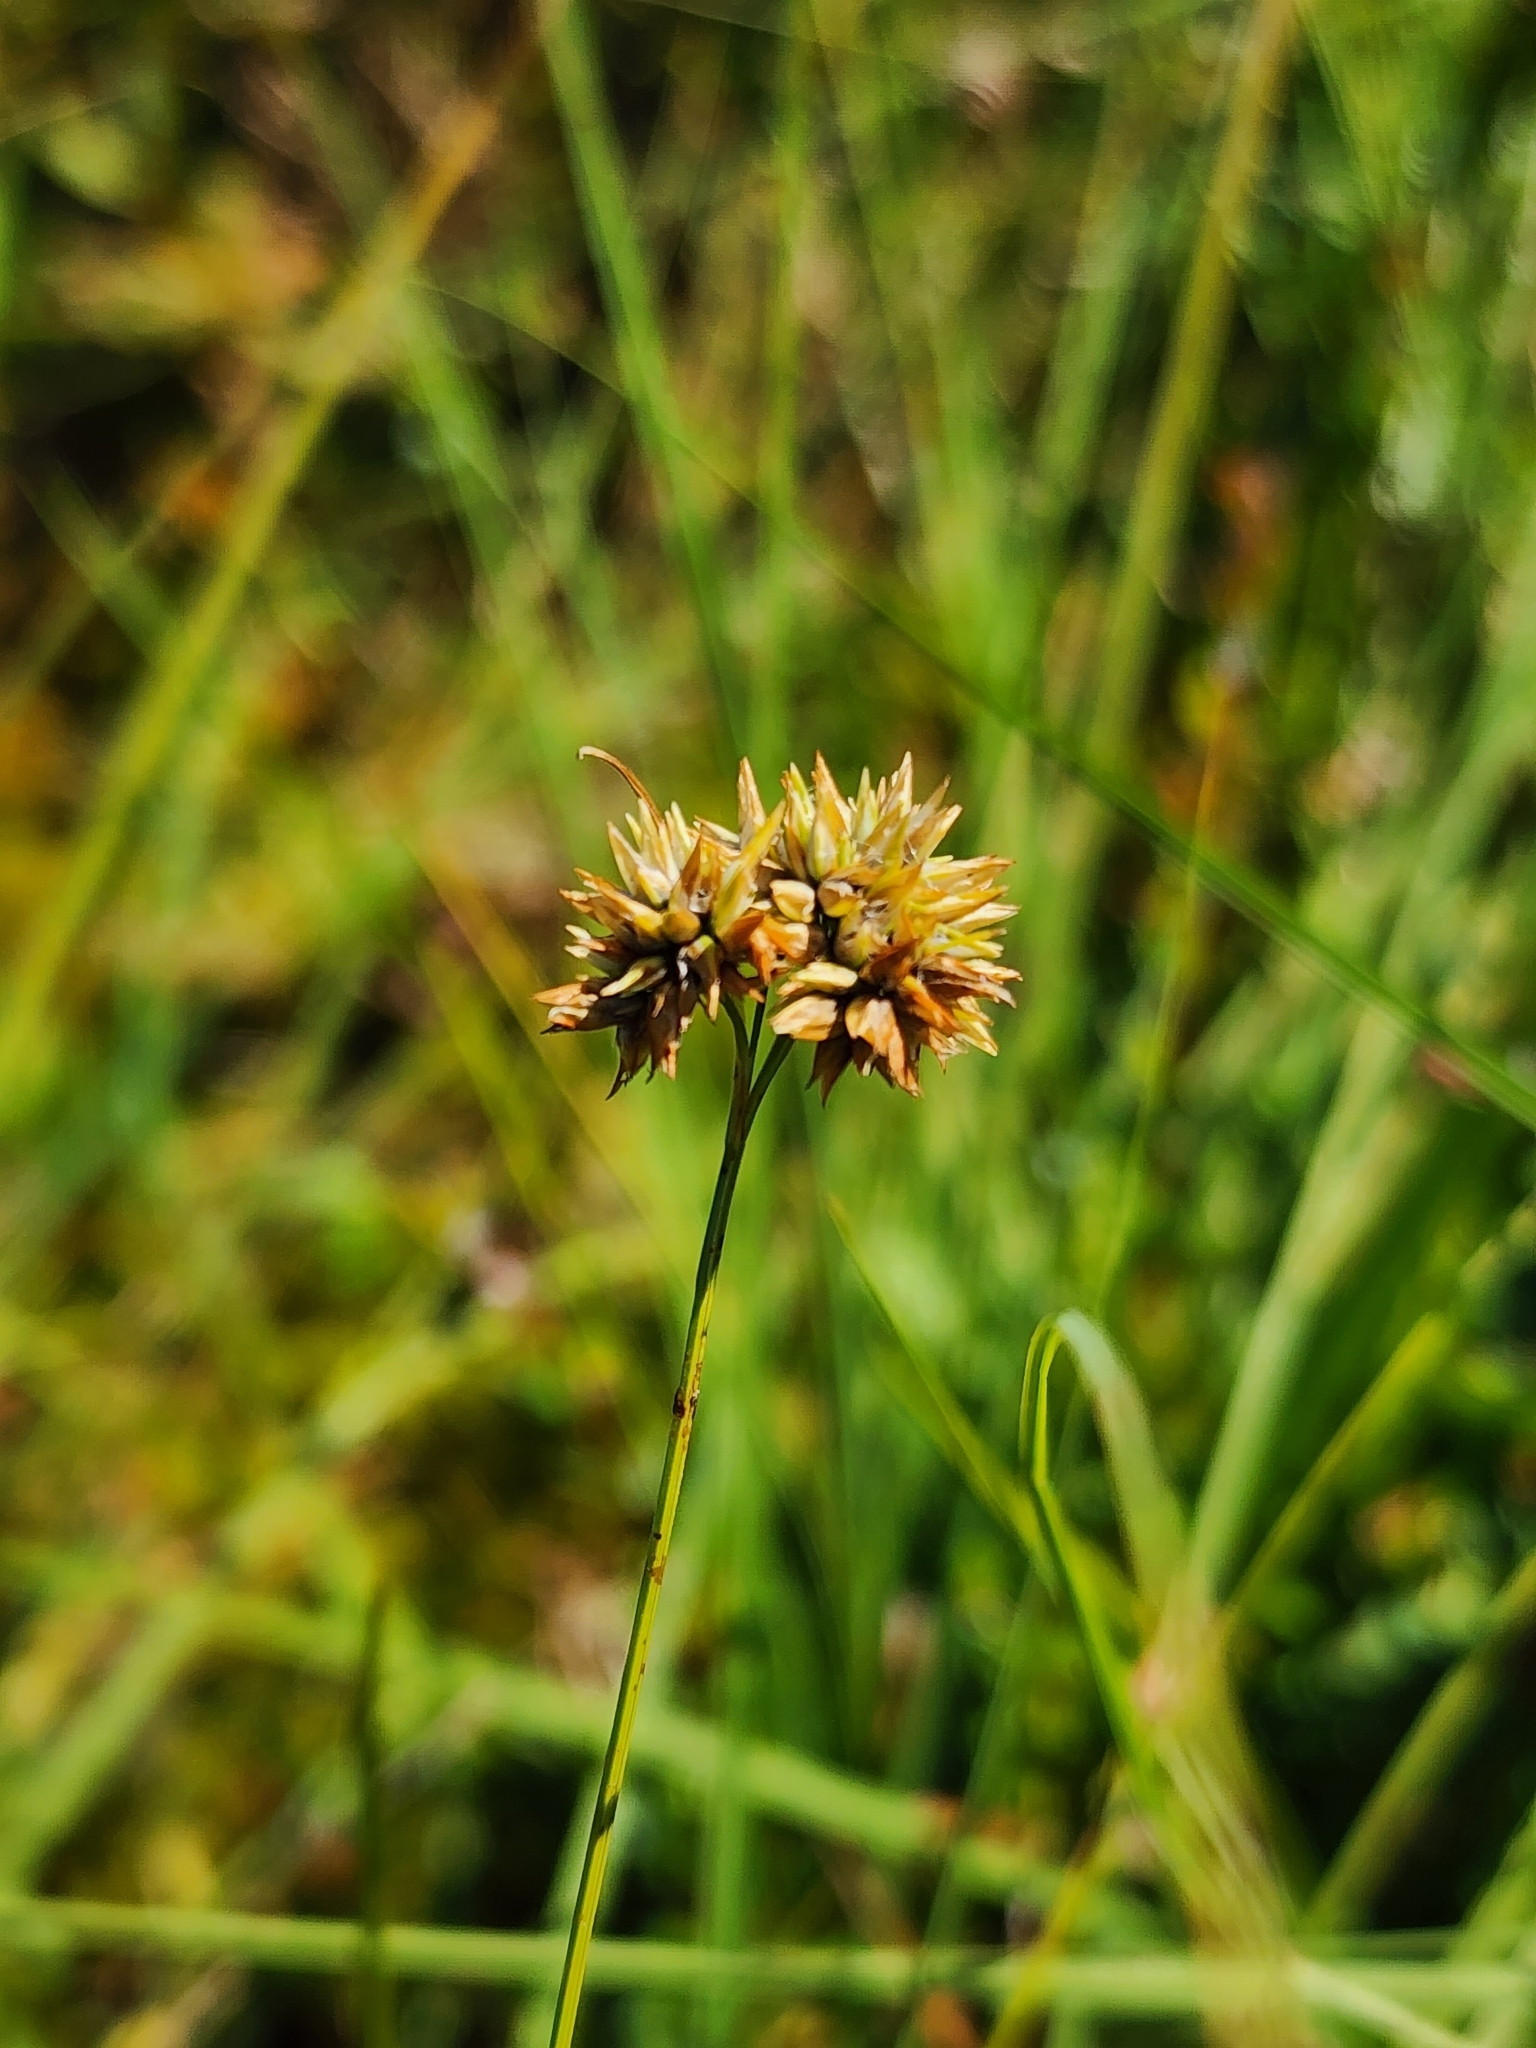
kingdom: Plantae
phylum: Tracheophyta
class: Liliopsida
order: Poales
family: Cyperaceae
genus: Rhynchospora
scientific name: Rhynchospora alba
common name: White beak-sedge
